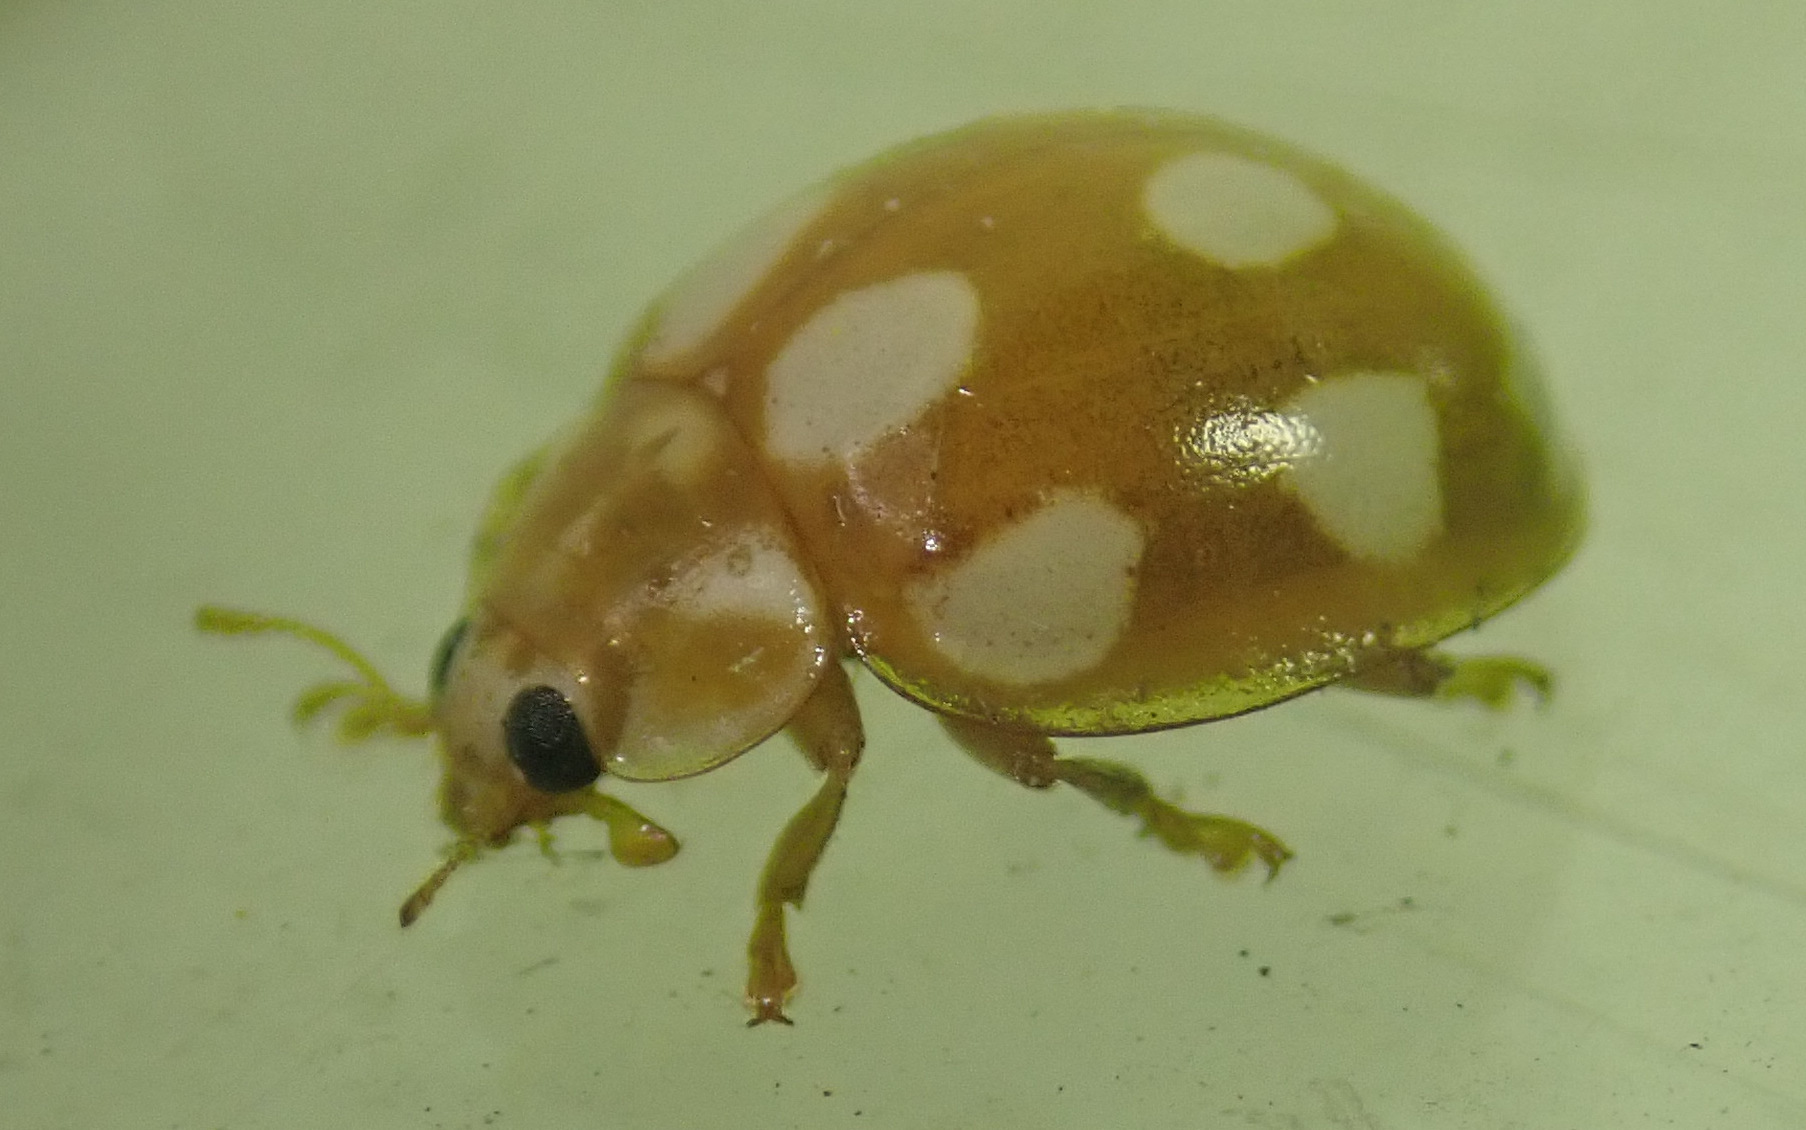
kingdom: Animalia
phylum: Arthropoda
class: Insecta
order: Coleoptera
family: Coccinellidae
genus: Calvia
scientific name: Calvia decemguttata
